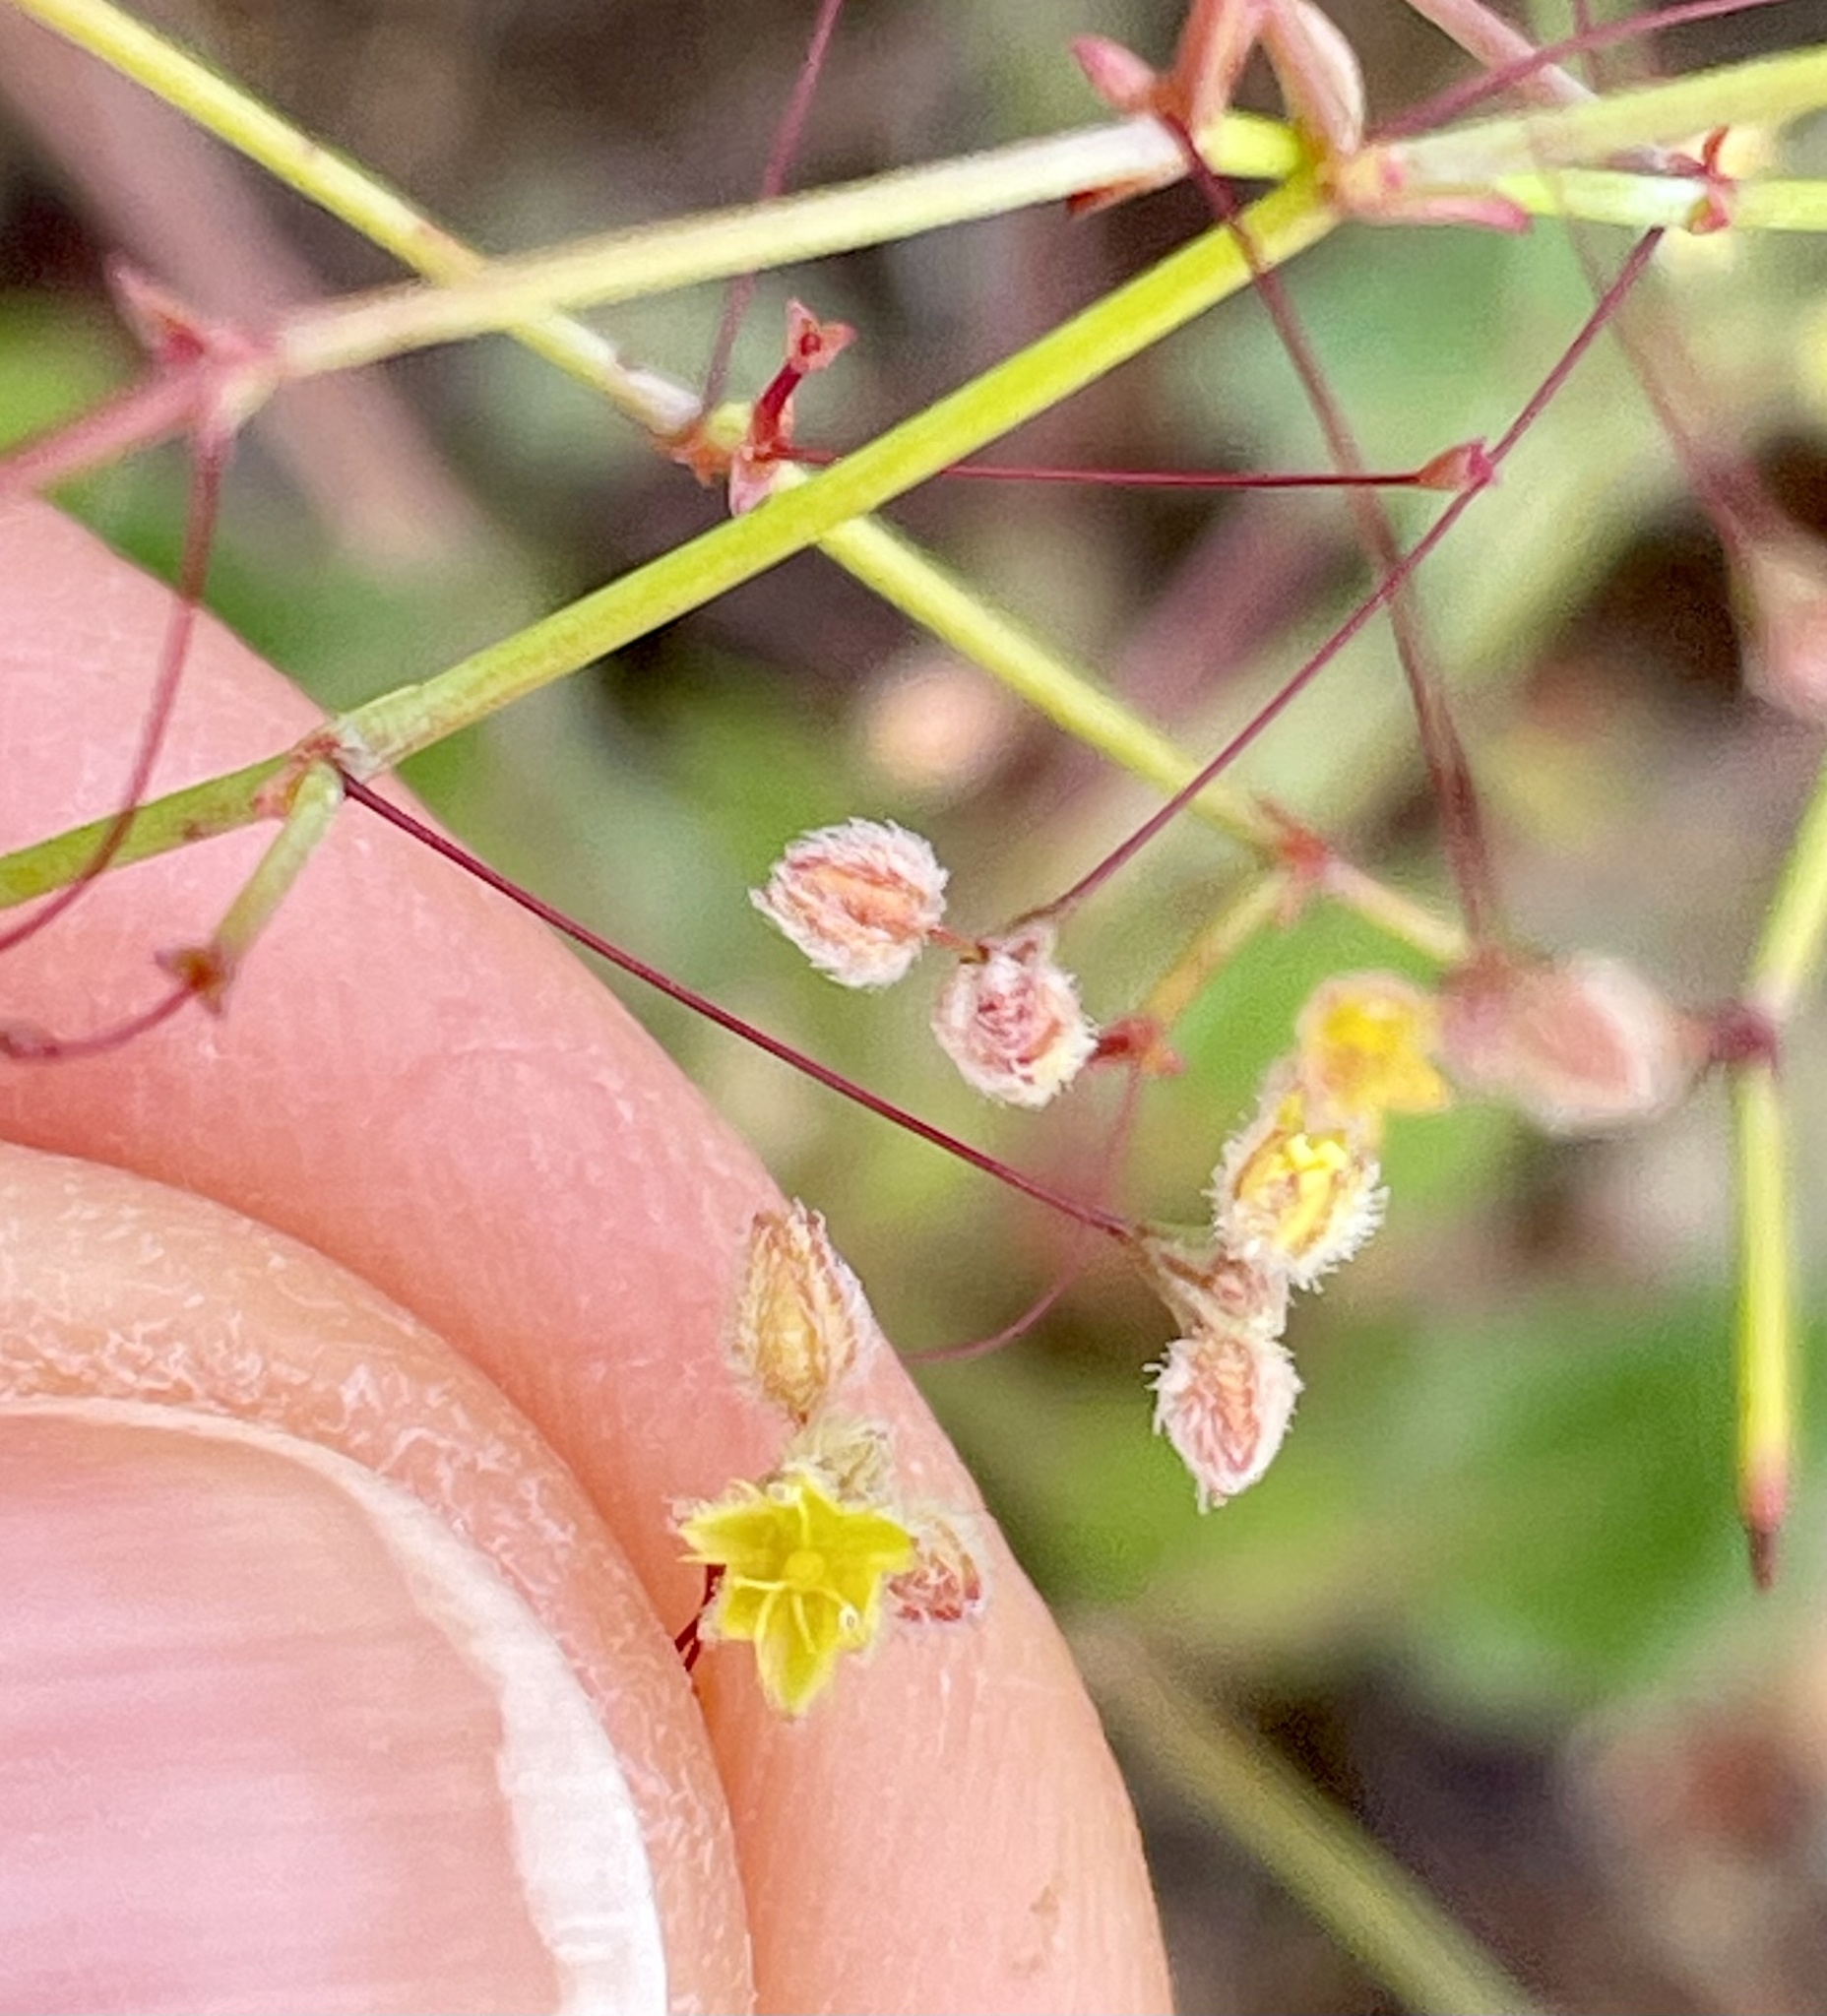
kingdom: Plantae
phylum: Tracheophyta
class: Magnoliopsida
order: Caryophyllales
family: Polygonaceae
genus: Eriogonum
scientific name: Eriogonum repens
